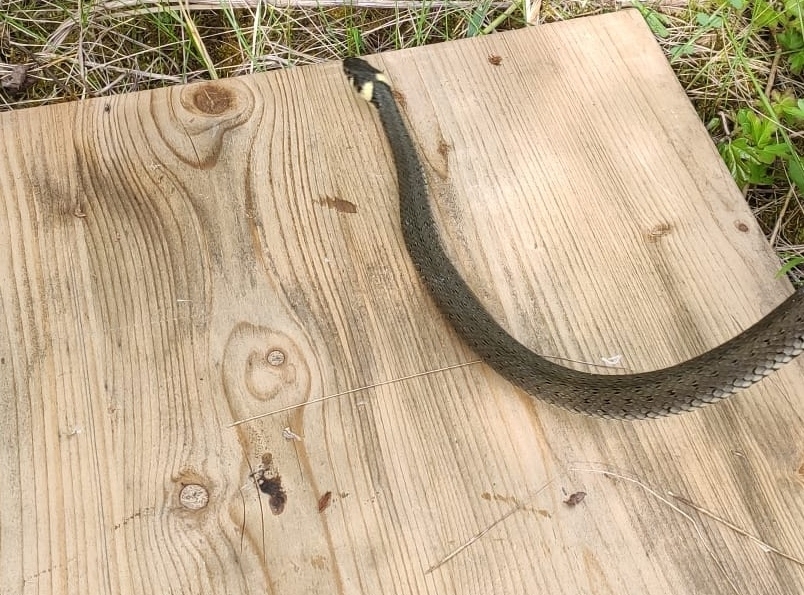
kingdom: Animalia
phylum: Chordata
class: Squamata
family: Colubridae
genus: Natrix
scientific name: Natrix natrix
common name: Grass snake
